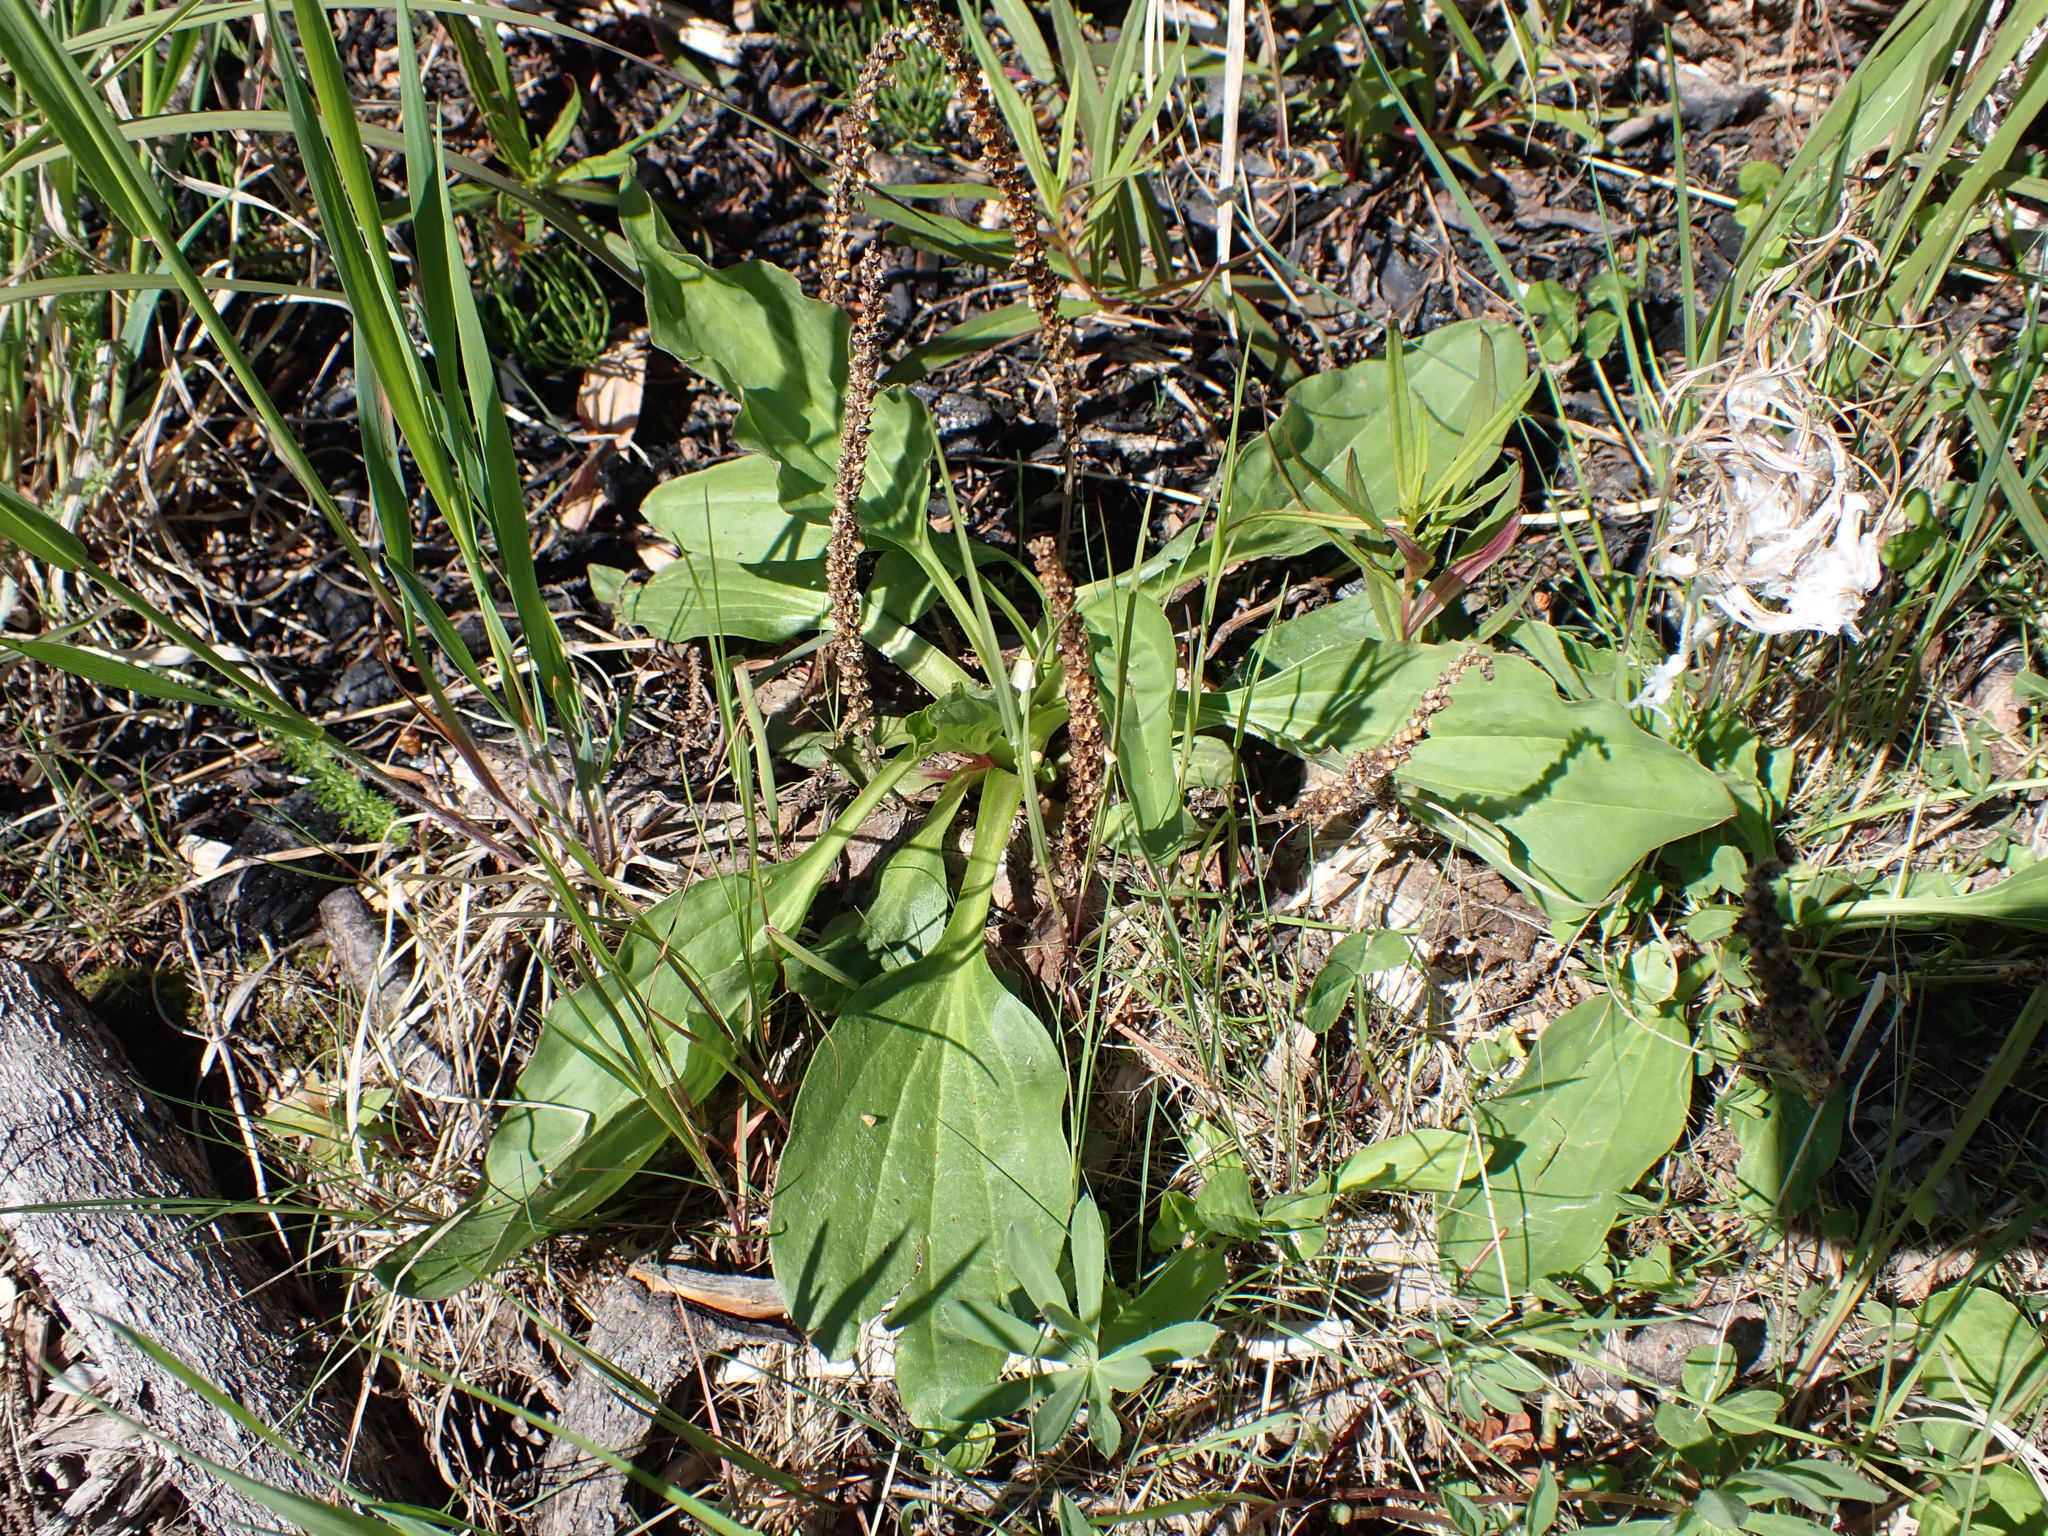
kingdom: Plantae
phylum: Tracheophyta
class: Magnoliopsida
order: Lamiales
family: Plantaginaceae
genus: Plantago
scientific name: Plantago major
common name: Common plantain
